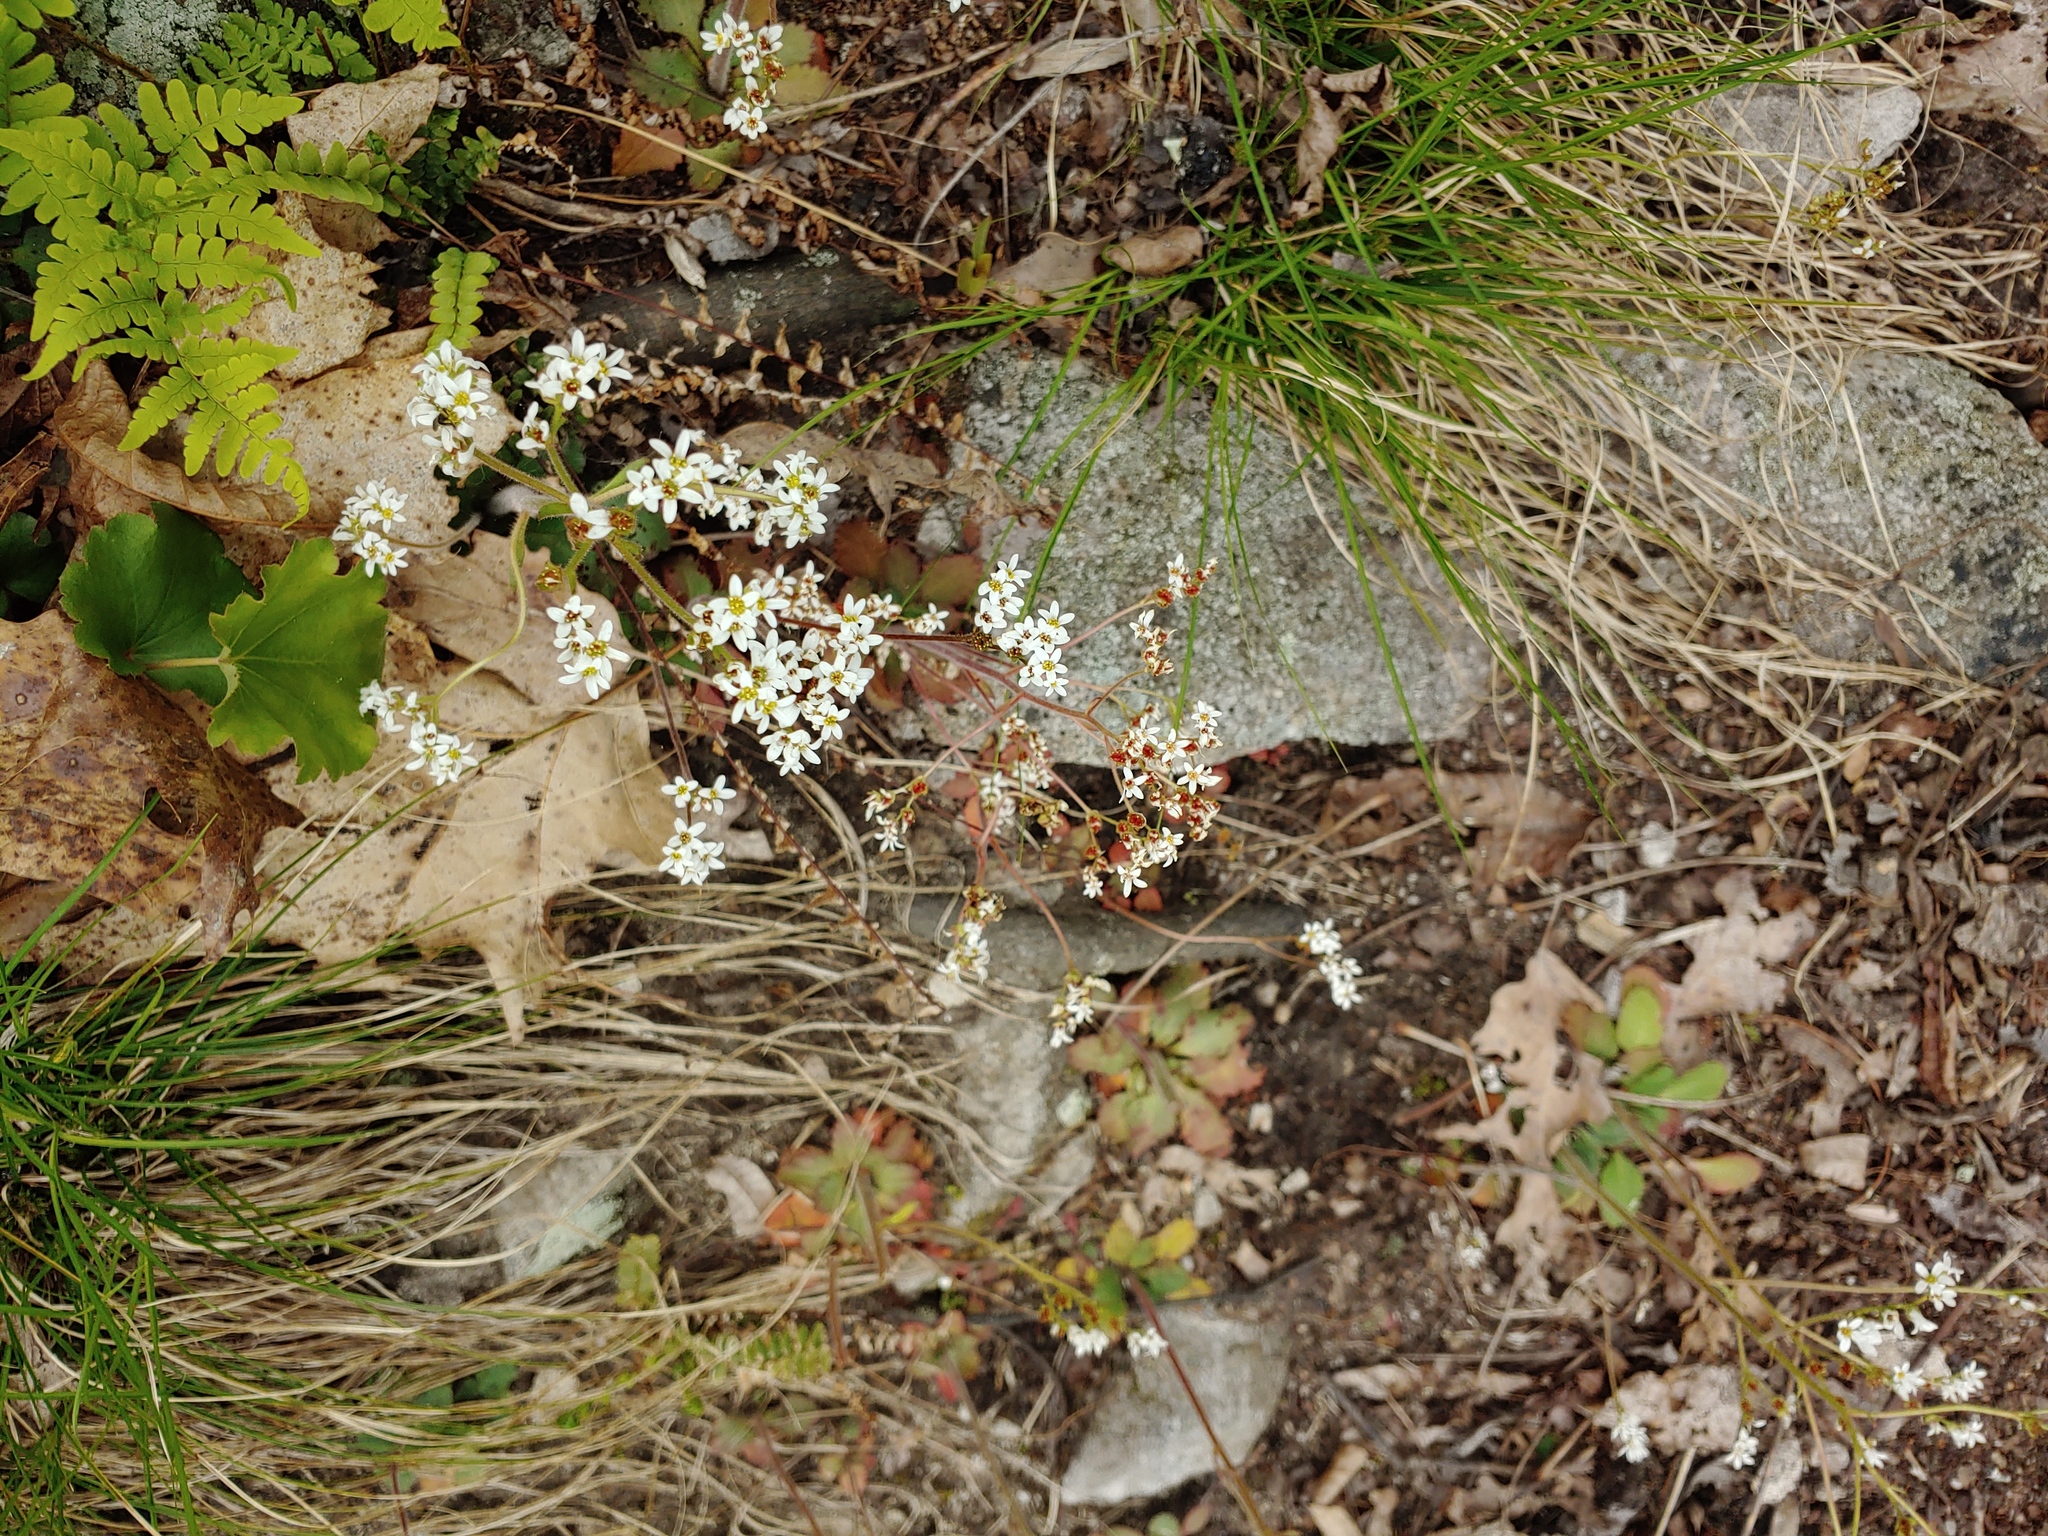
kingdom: Plantae
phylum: Tracheophyta
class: Magnoliopsida
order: Saxifragales
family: Saxifragaceae
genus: Micranthes
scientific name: Micranthes virginiensis
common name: Early saxifrage
